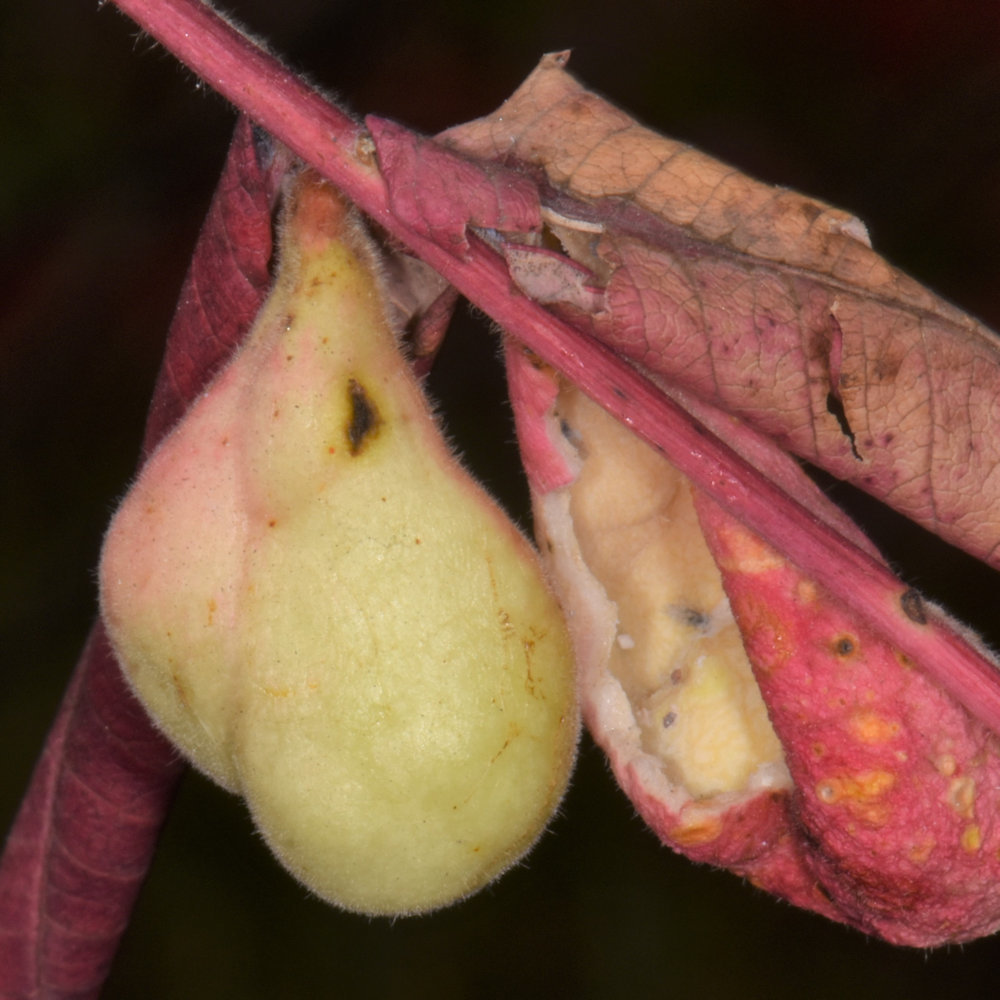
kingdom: Animalia
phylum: Arthropoda
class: Insecta
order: Hemiptera
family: Aphididae
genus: Melaphis
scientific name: Melaphis rhois
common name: Sumac gall aphid
